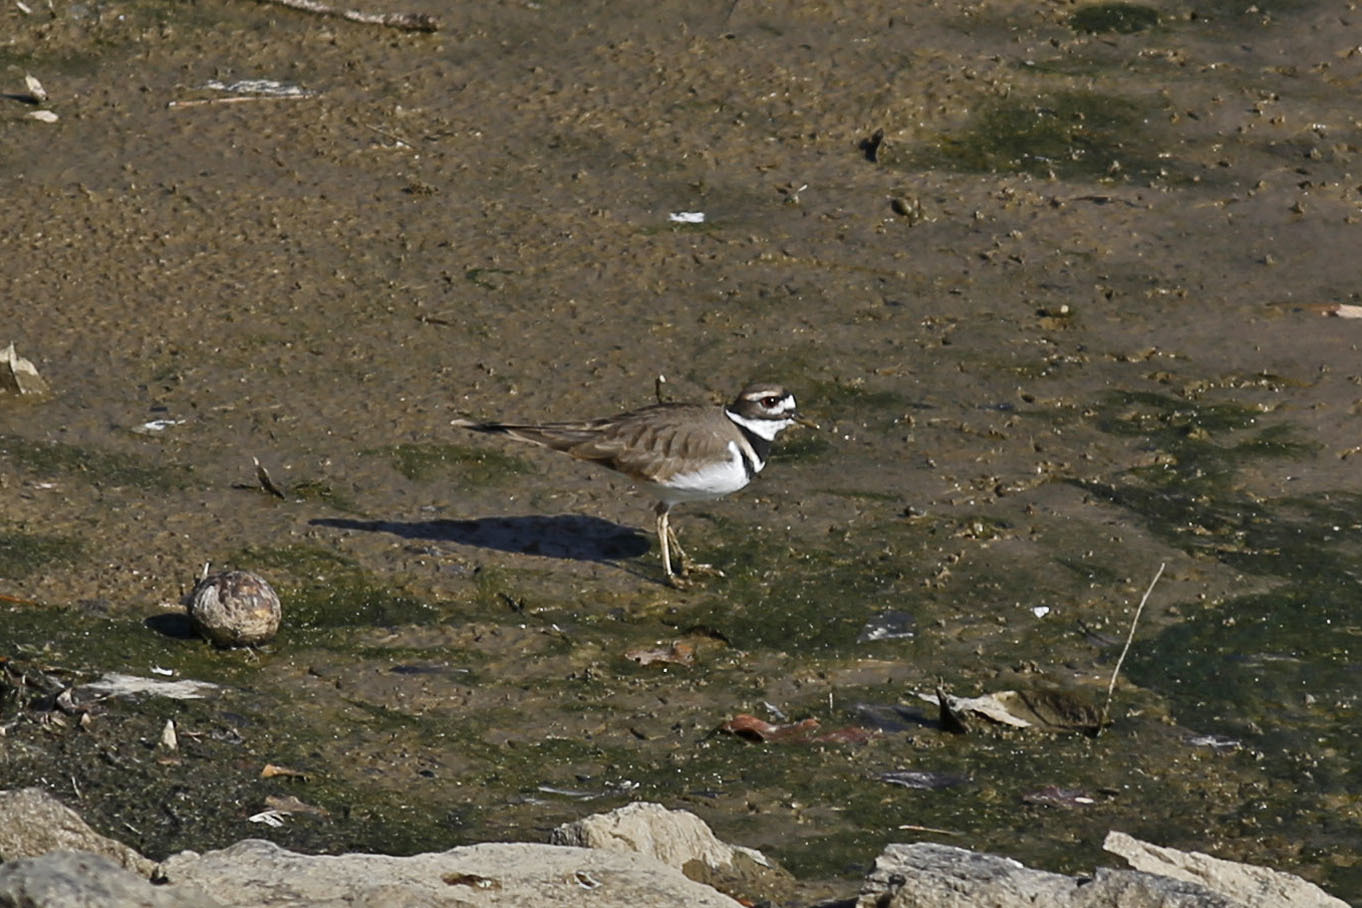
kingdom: Animalia
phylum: Chordata
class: Aves
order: Charadriiformes
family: Charadriidae
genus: Charadrius
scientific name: Charadrius vociferus
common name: Killdeer
